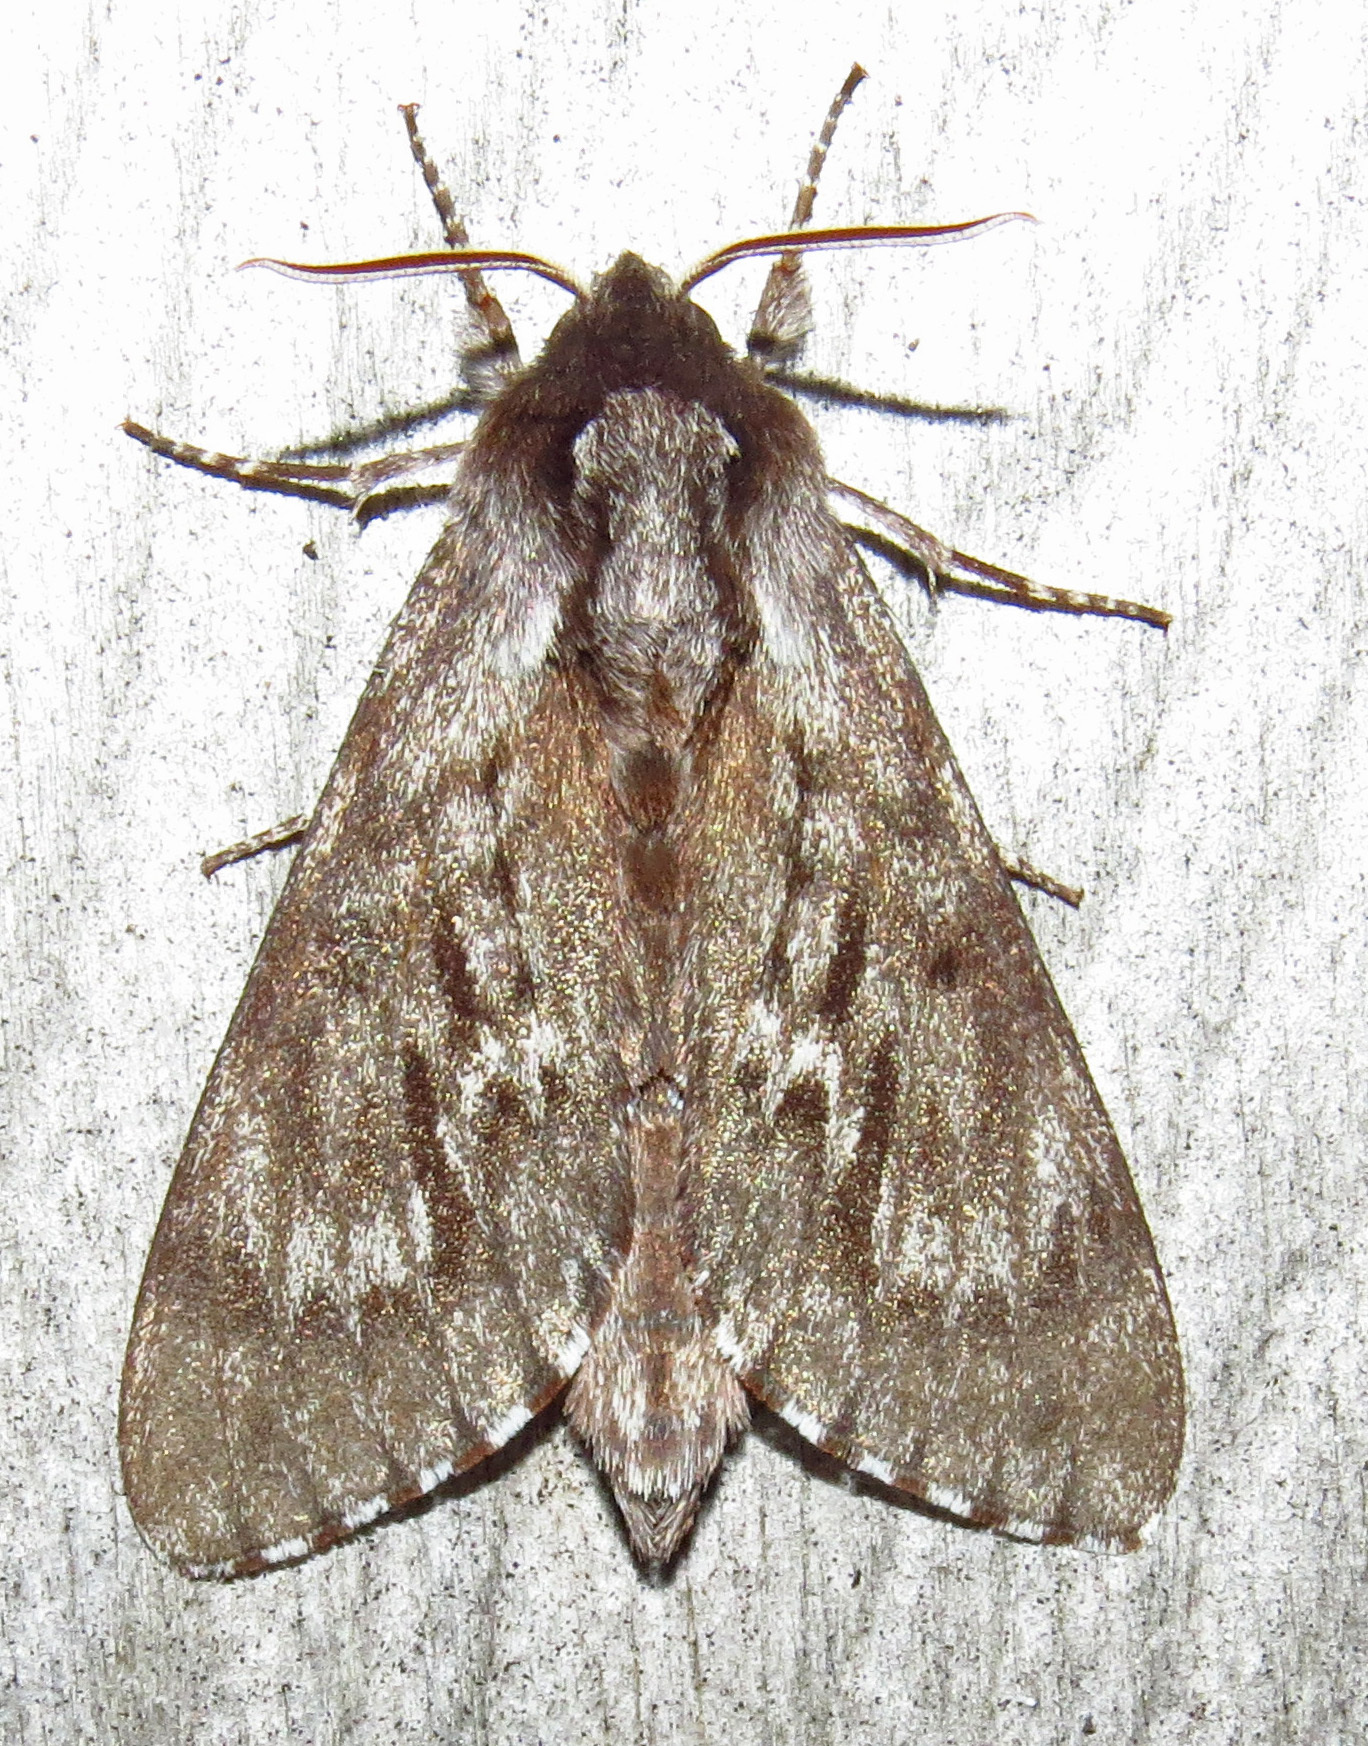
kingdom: Animalia
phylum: Arthropoda
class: Insecta
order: Lepidoptera
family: Sphingidae
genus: Lapara
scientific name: Lapara bombycoides
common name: Northern pine sphinx
